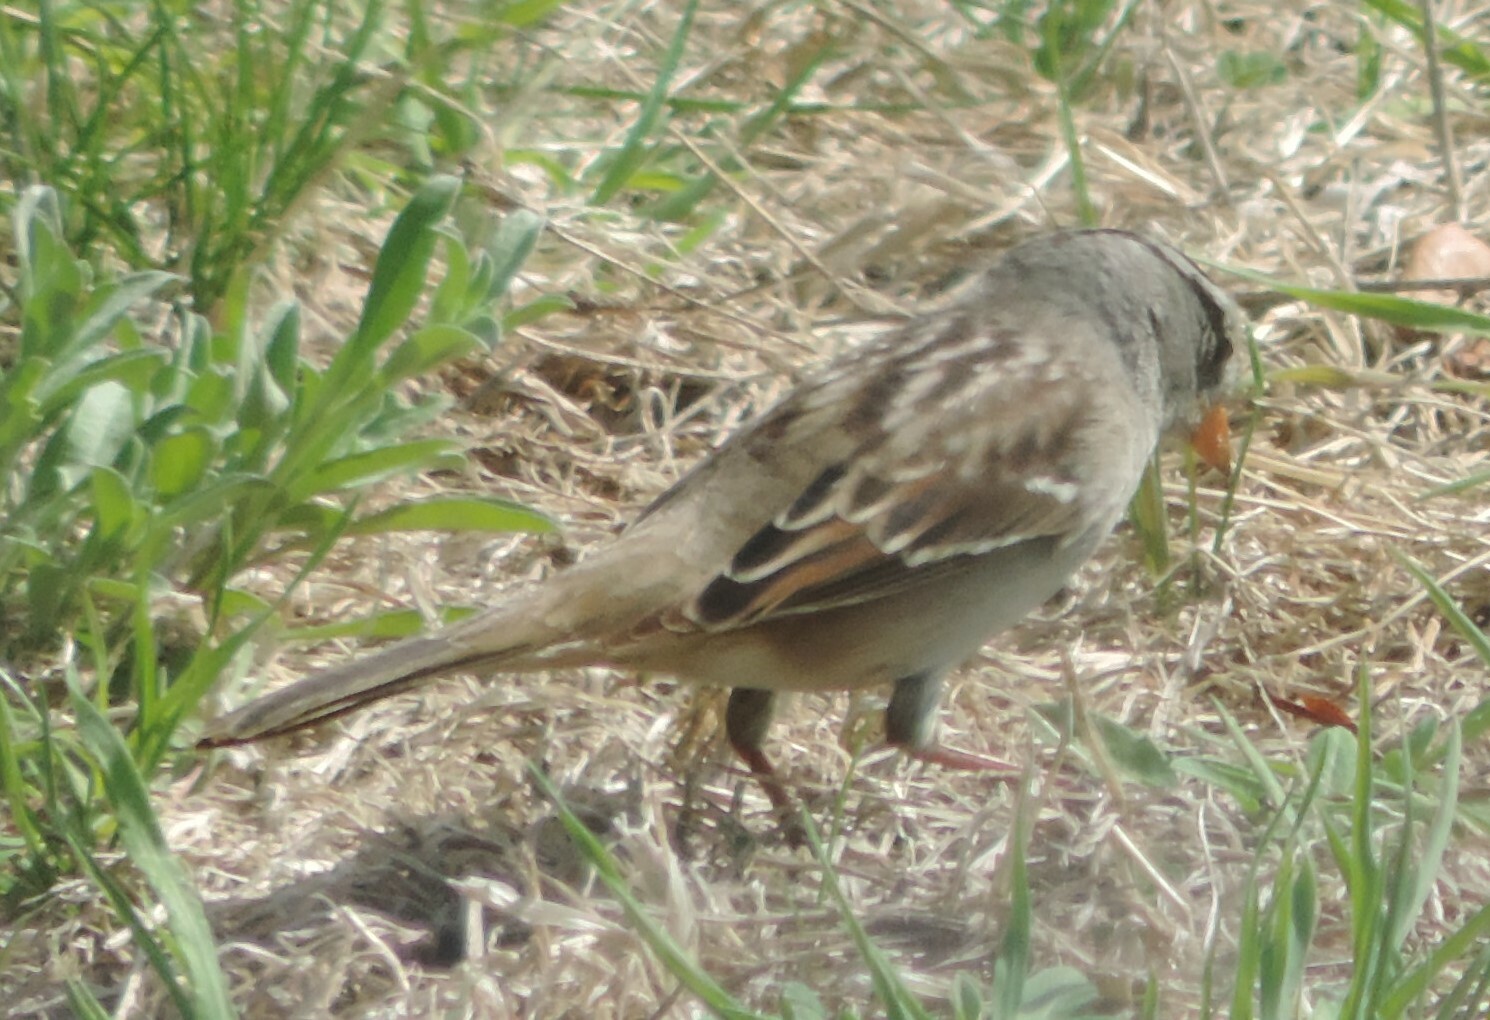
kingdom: Animalia
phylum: Chordata
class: Aves
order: Passeriformes
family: Passerellidae
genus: Zonotrichia
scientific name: Zonotrichia leucophrys
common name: White-crowned sparrow
